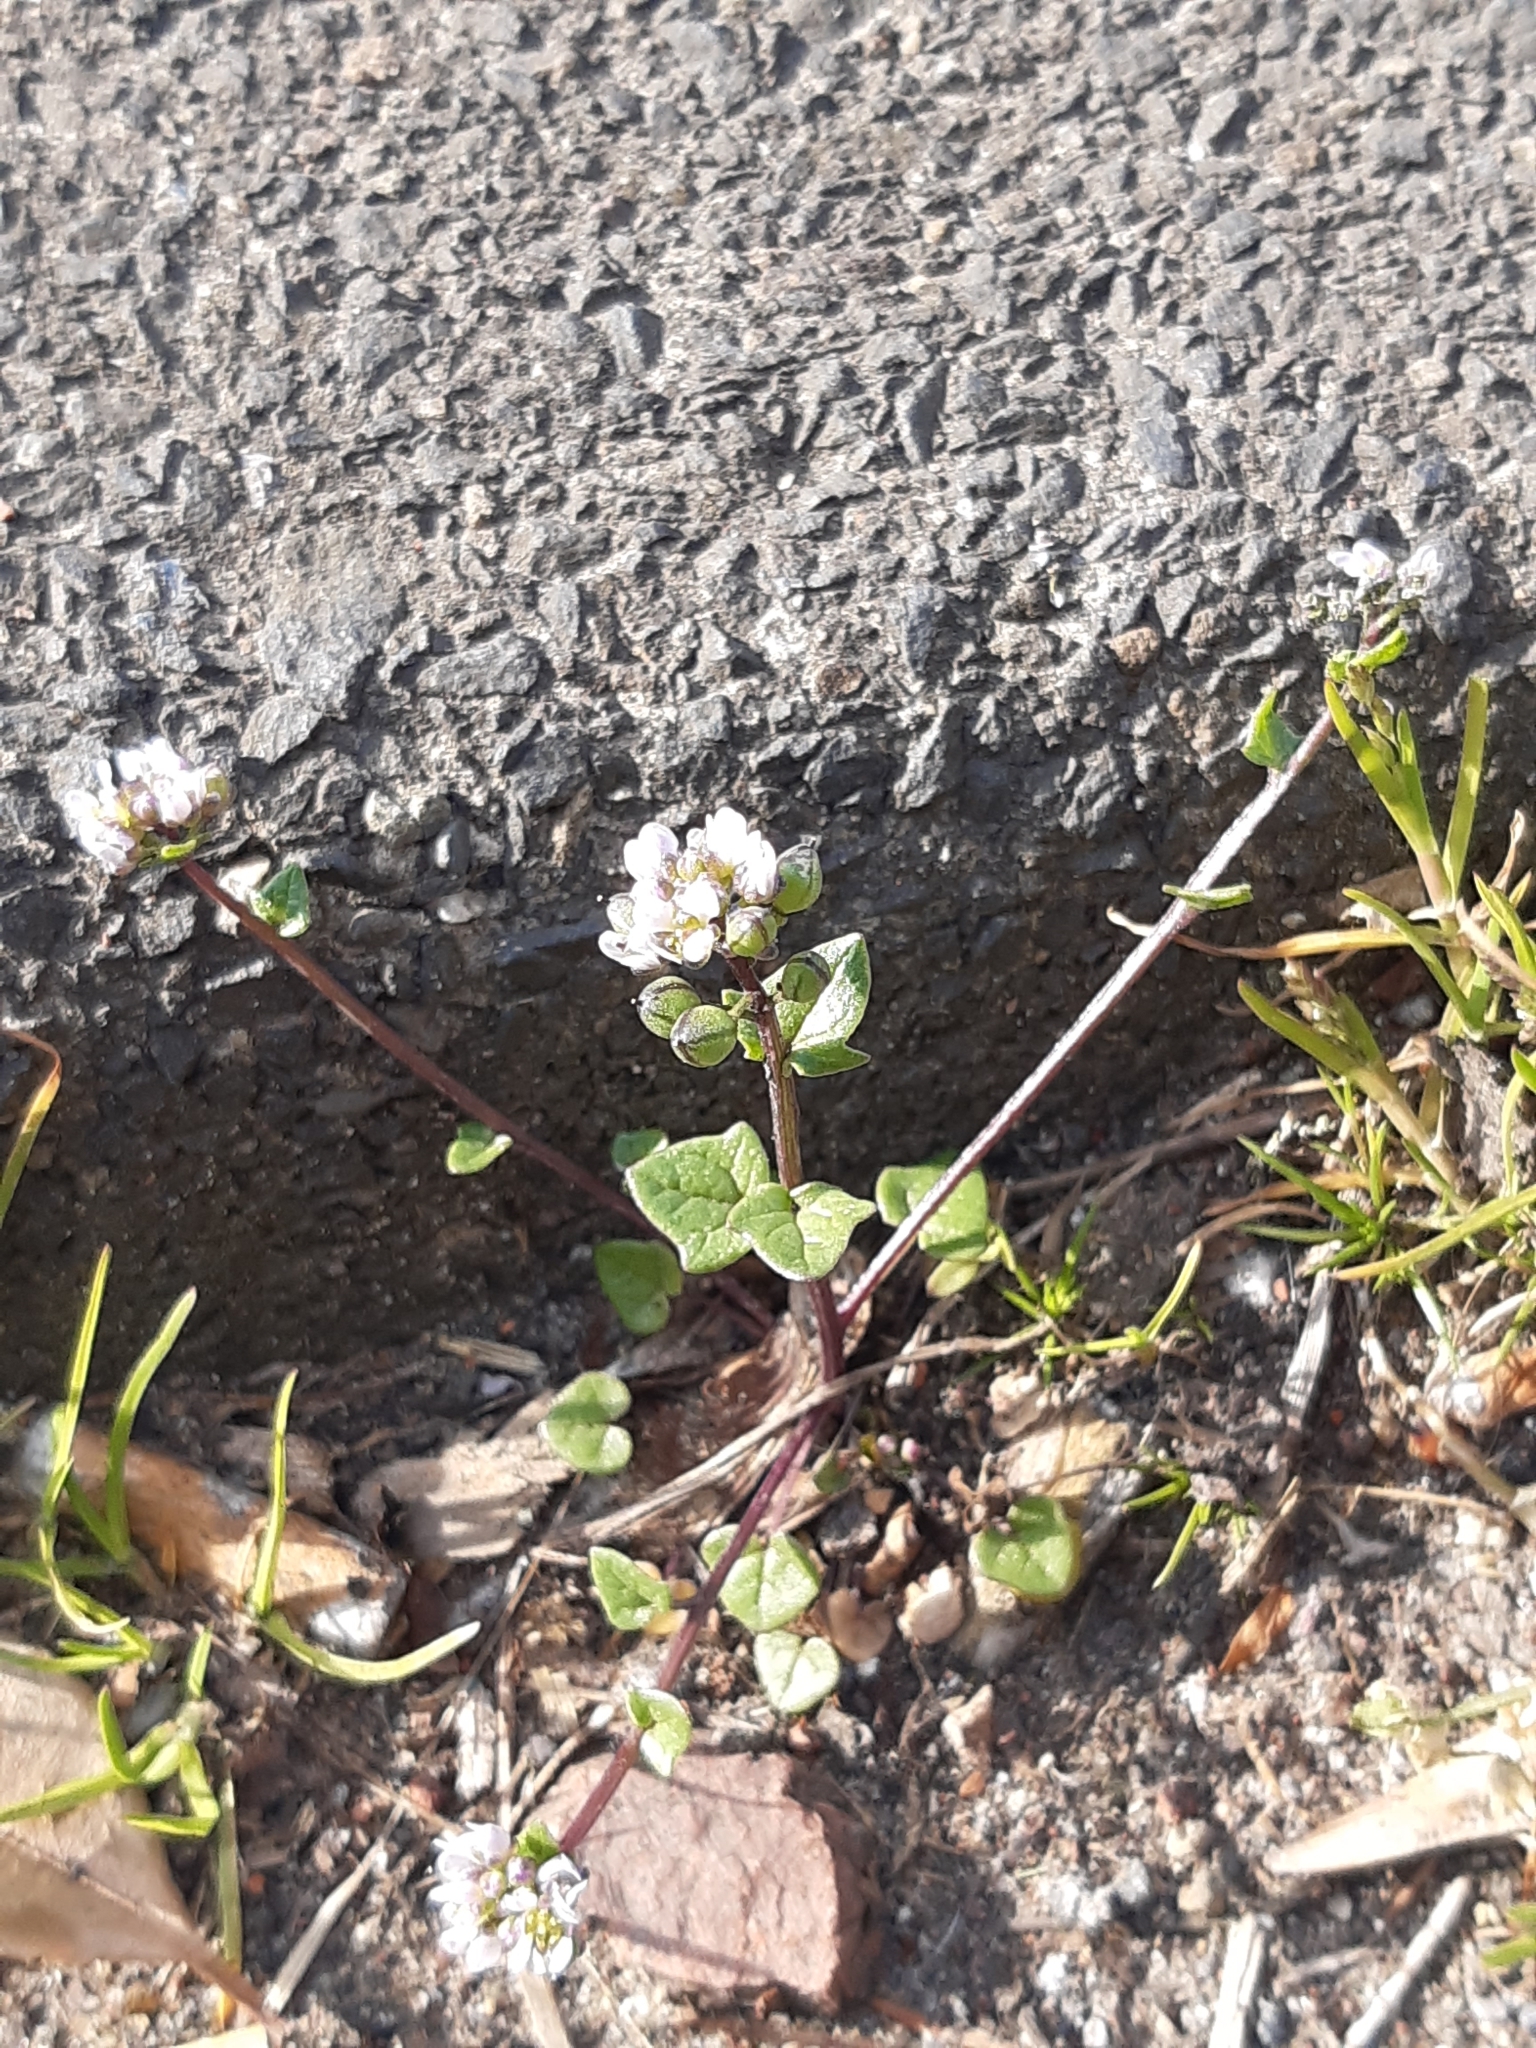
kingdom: Plantae
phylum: Tracheophyta
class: Magnoliopsida
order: Brassicales
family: Brassicaceae
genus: Cochlearia
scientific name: Cochlearia danica
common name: Early scurvygrass
